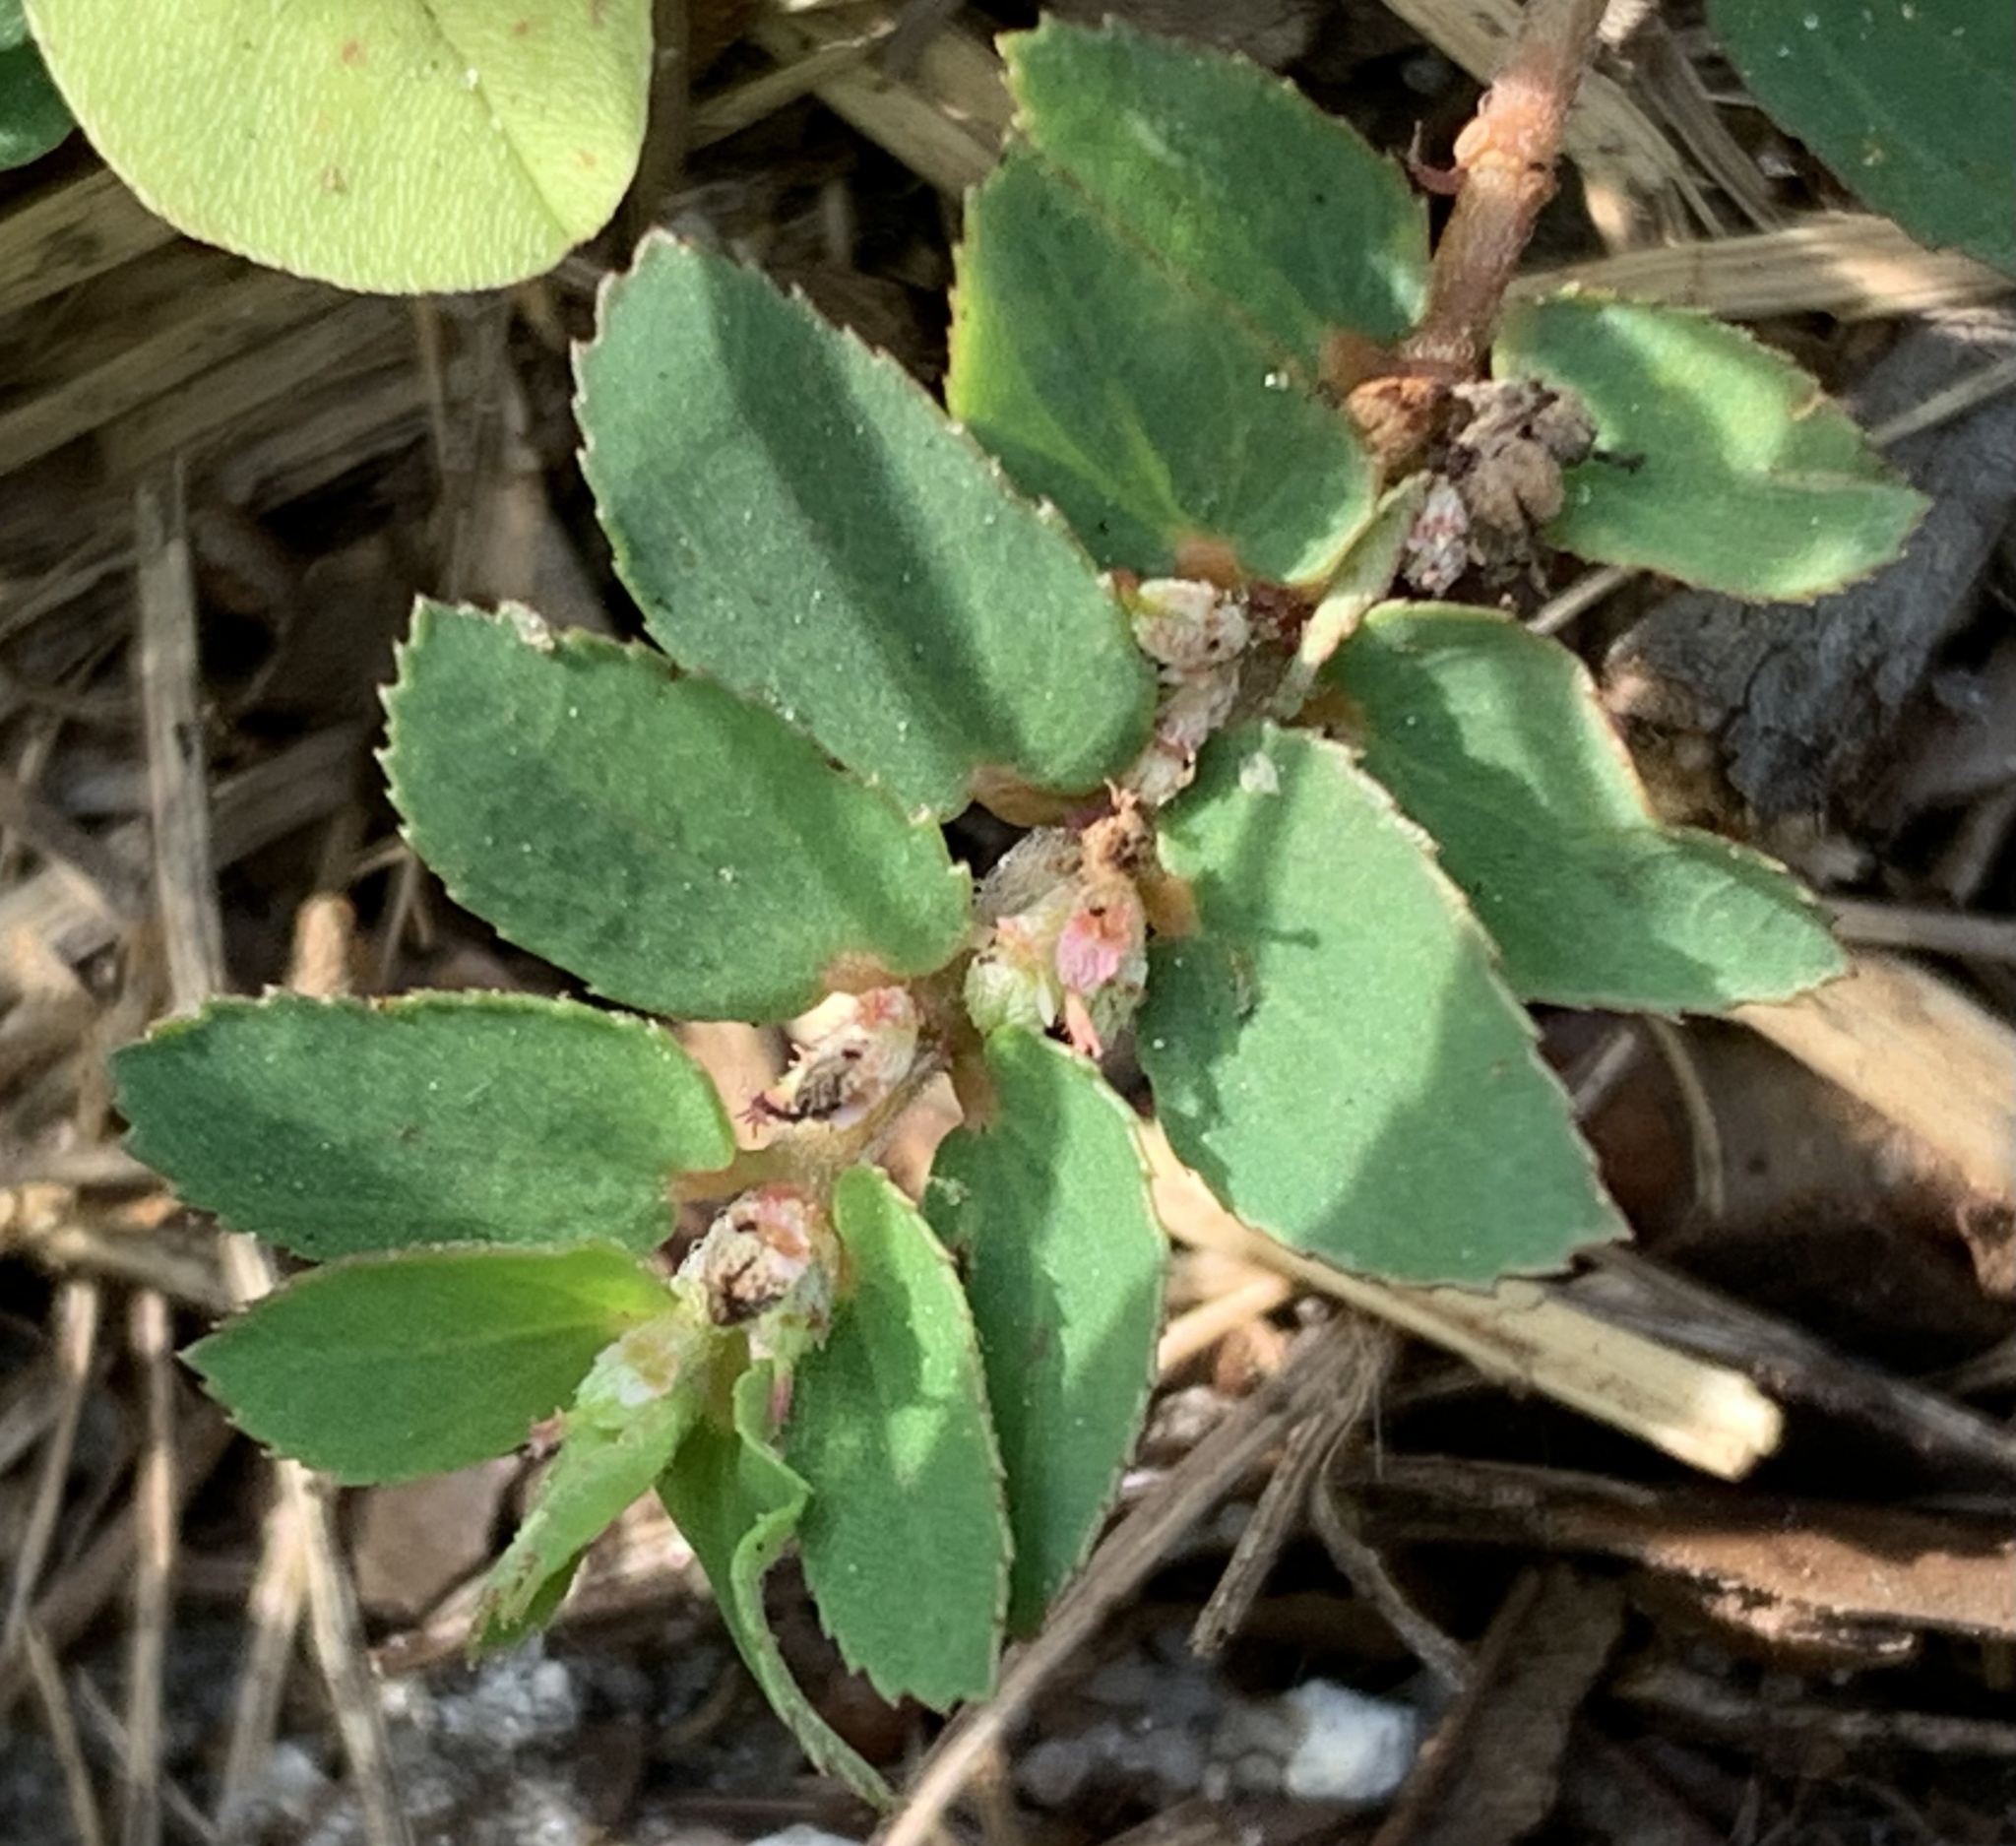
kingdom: Plantae
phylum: Tracheophyta
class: Magnoliopsida
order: Malpighiales
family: Euphorbiaceae
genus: Euphorbia
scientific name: Euphorbia thymifolia
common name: Gulf sandmat
